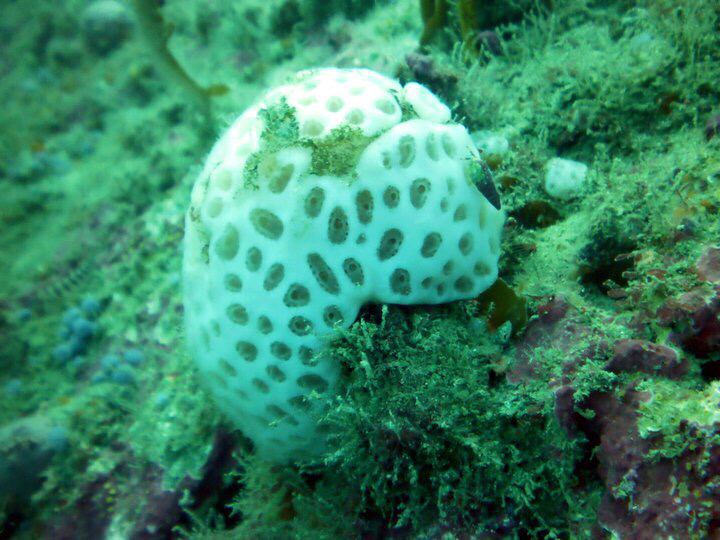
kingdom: Animalia
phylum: Chordata
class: Ascidiacea
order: Aplousobranchia
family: Polyclinidae
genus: Aplidium
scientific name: Aplidium
